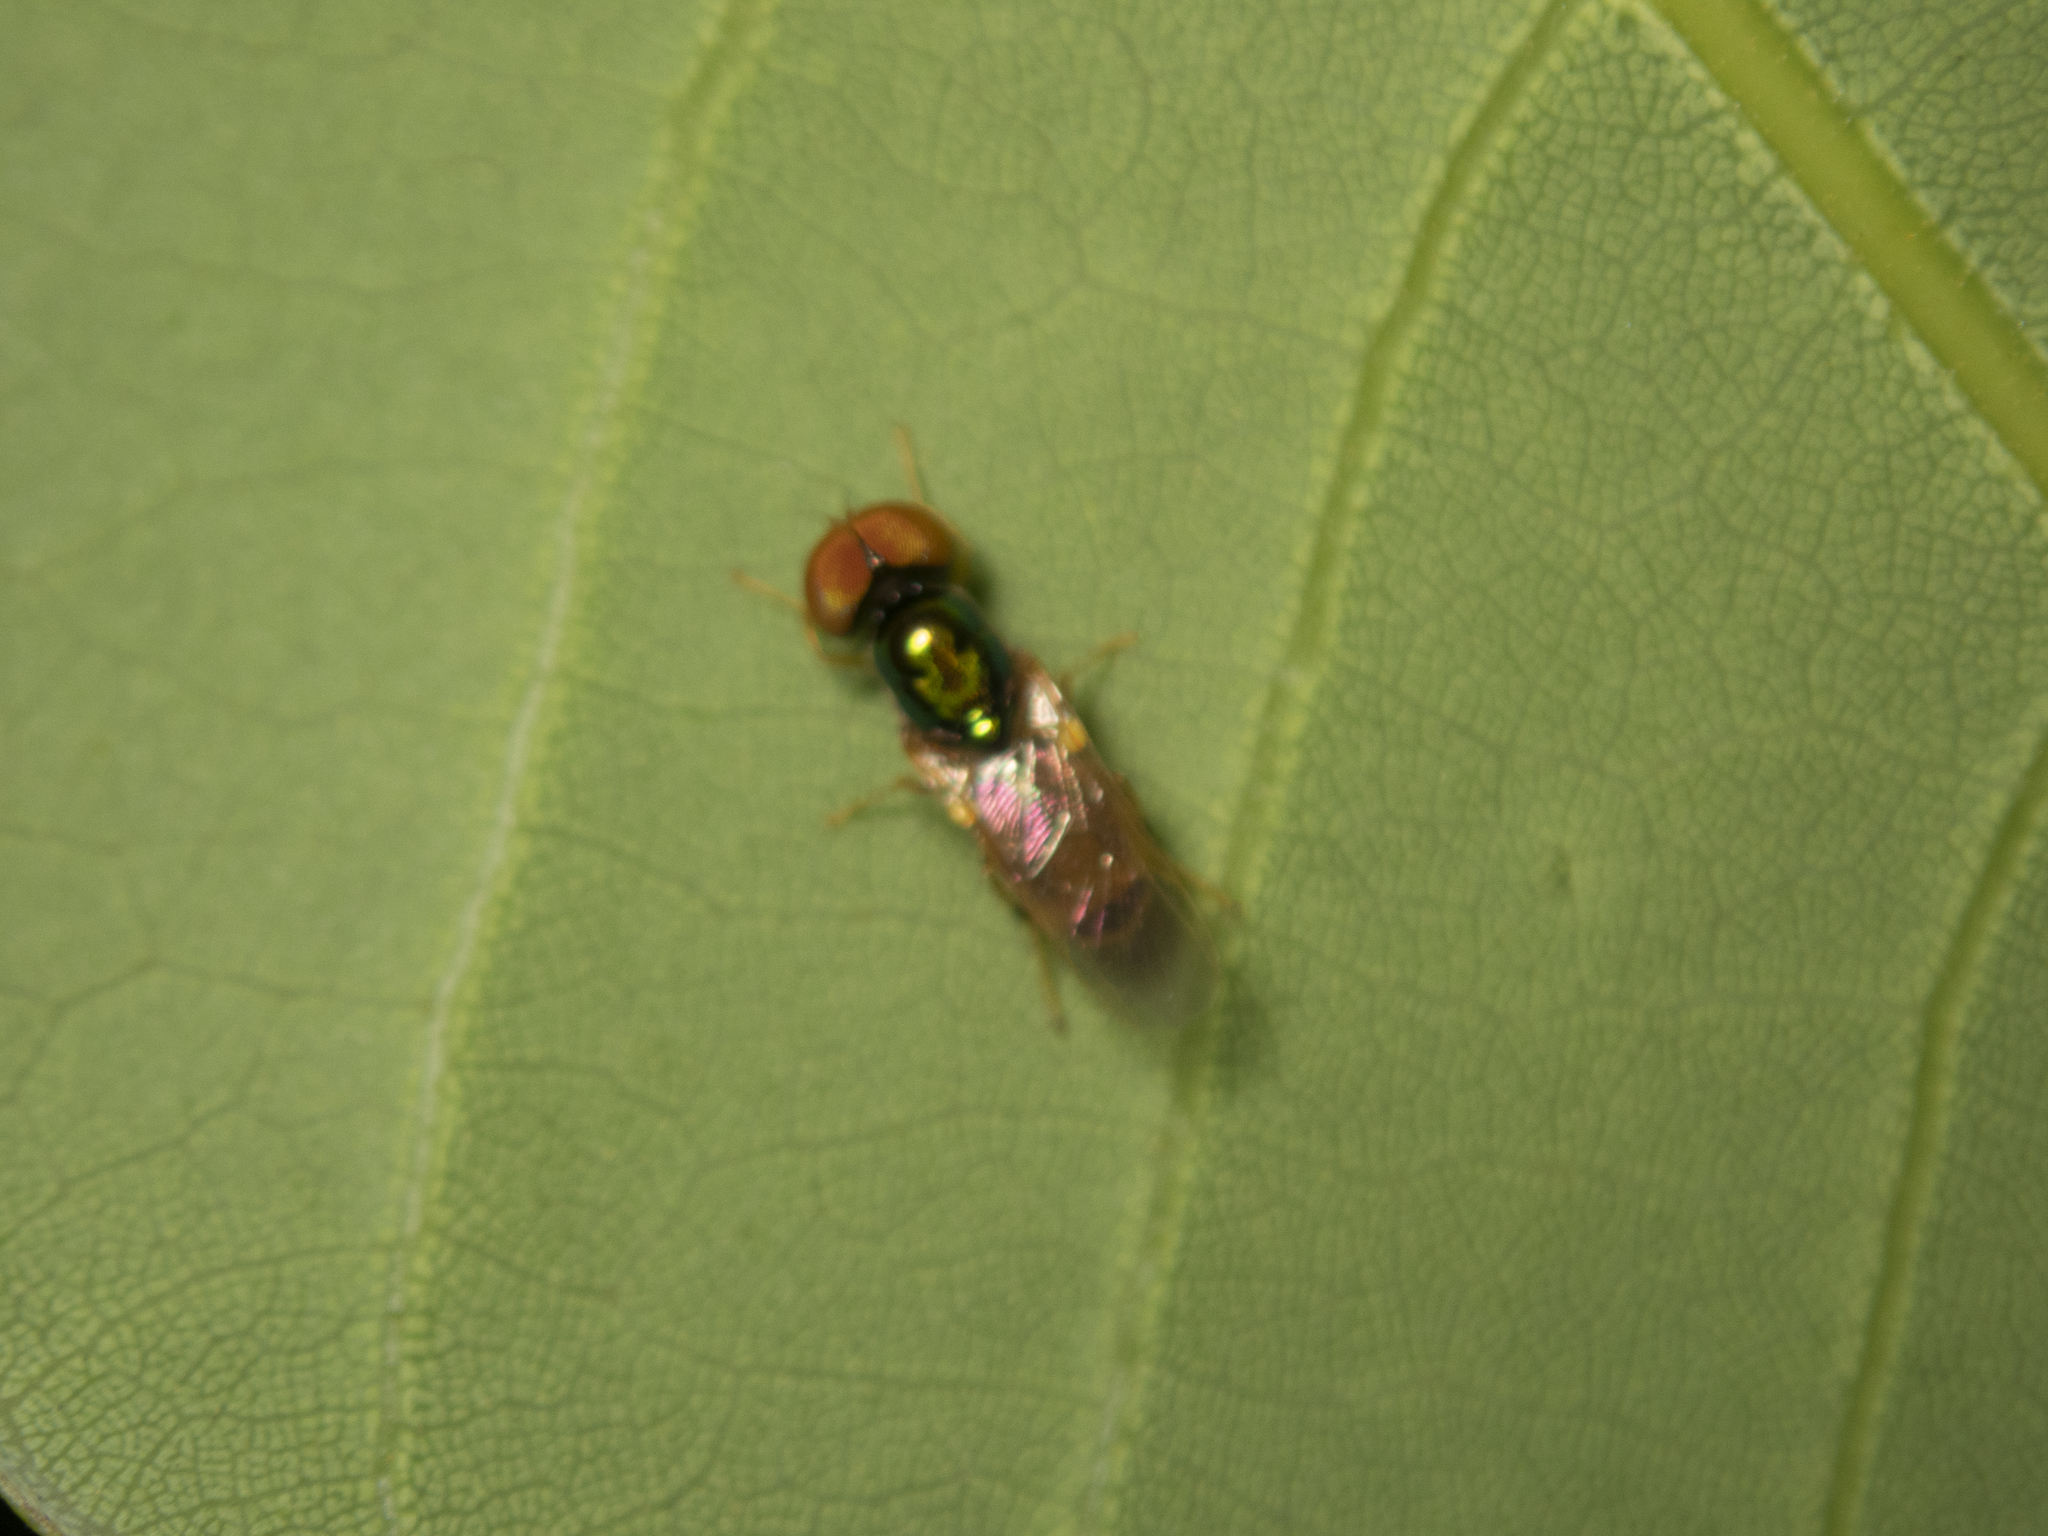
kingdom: Animalia
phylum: Arthropoda
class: Insecta
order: Diptera
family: Stratiomyidae
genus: Microchrysa
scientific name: Microchrysa flaviventris
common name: Soldier fly
